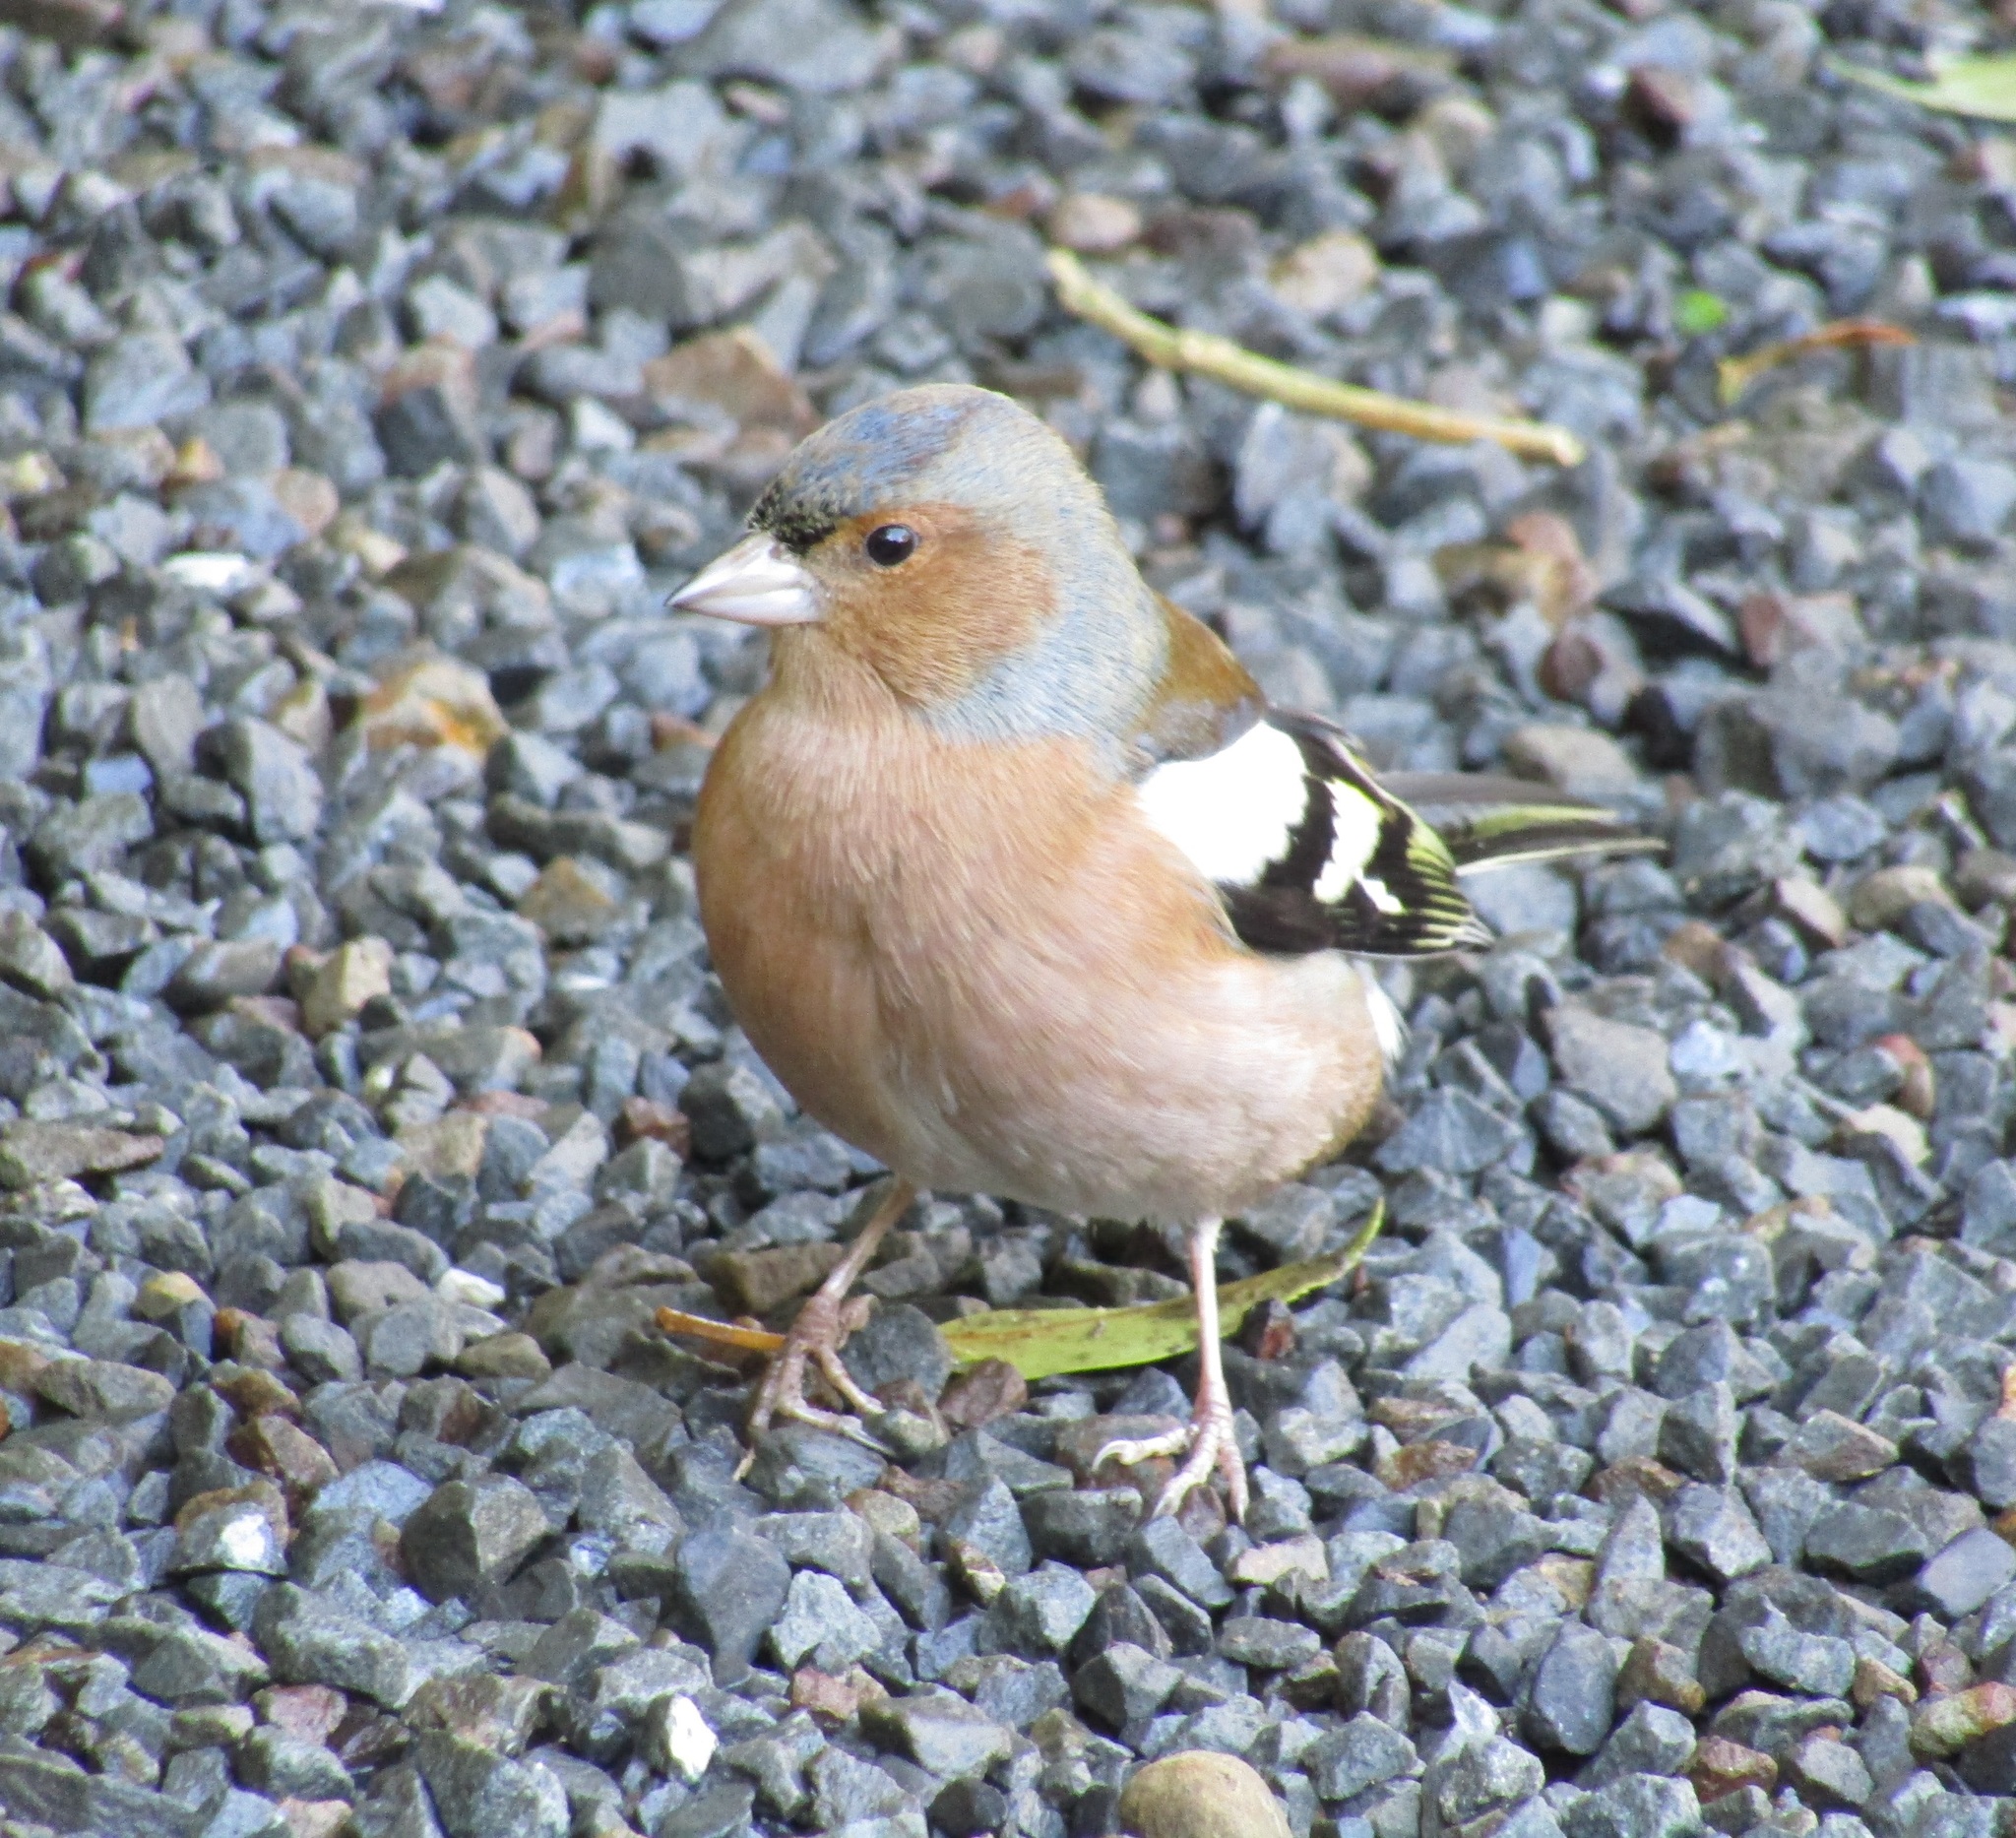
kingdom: Animalia
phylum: Chordata
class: Aves
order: Passeriformes
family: Fringillidae
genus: Fringilla
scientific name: Fringilla coelebs
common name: Common chaffinch
